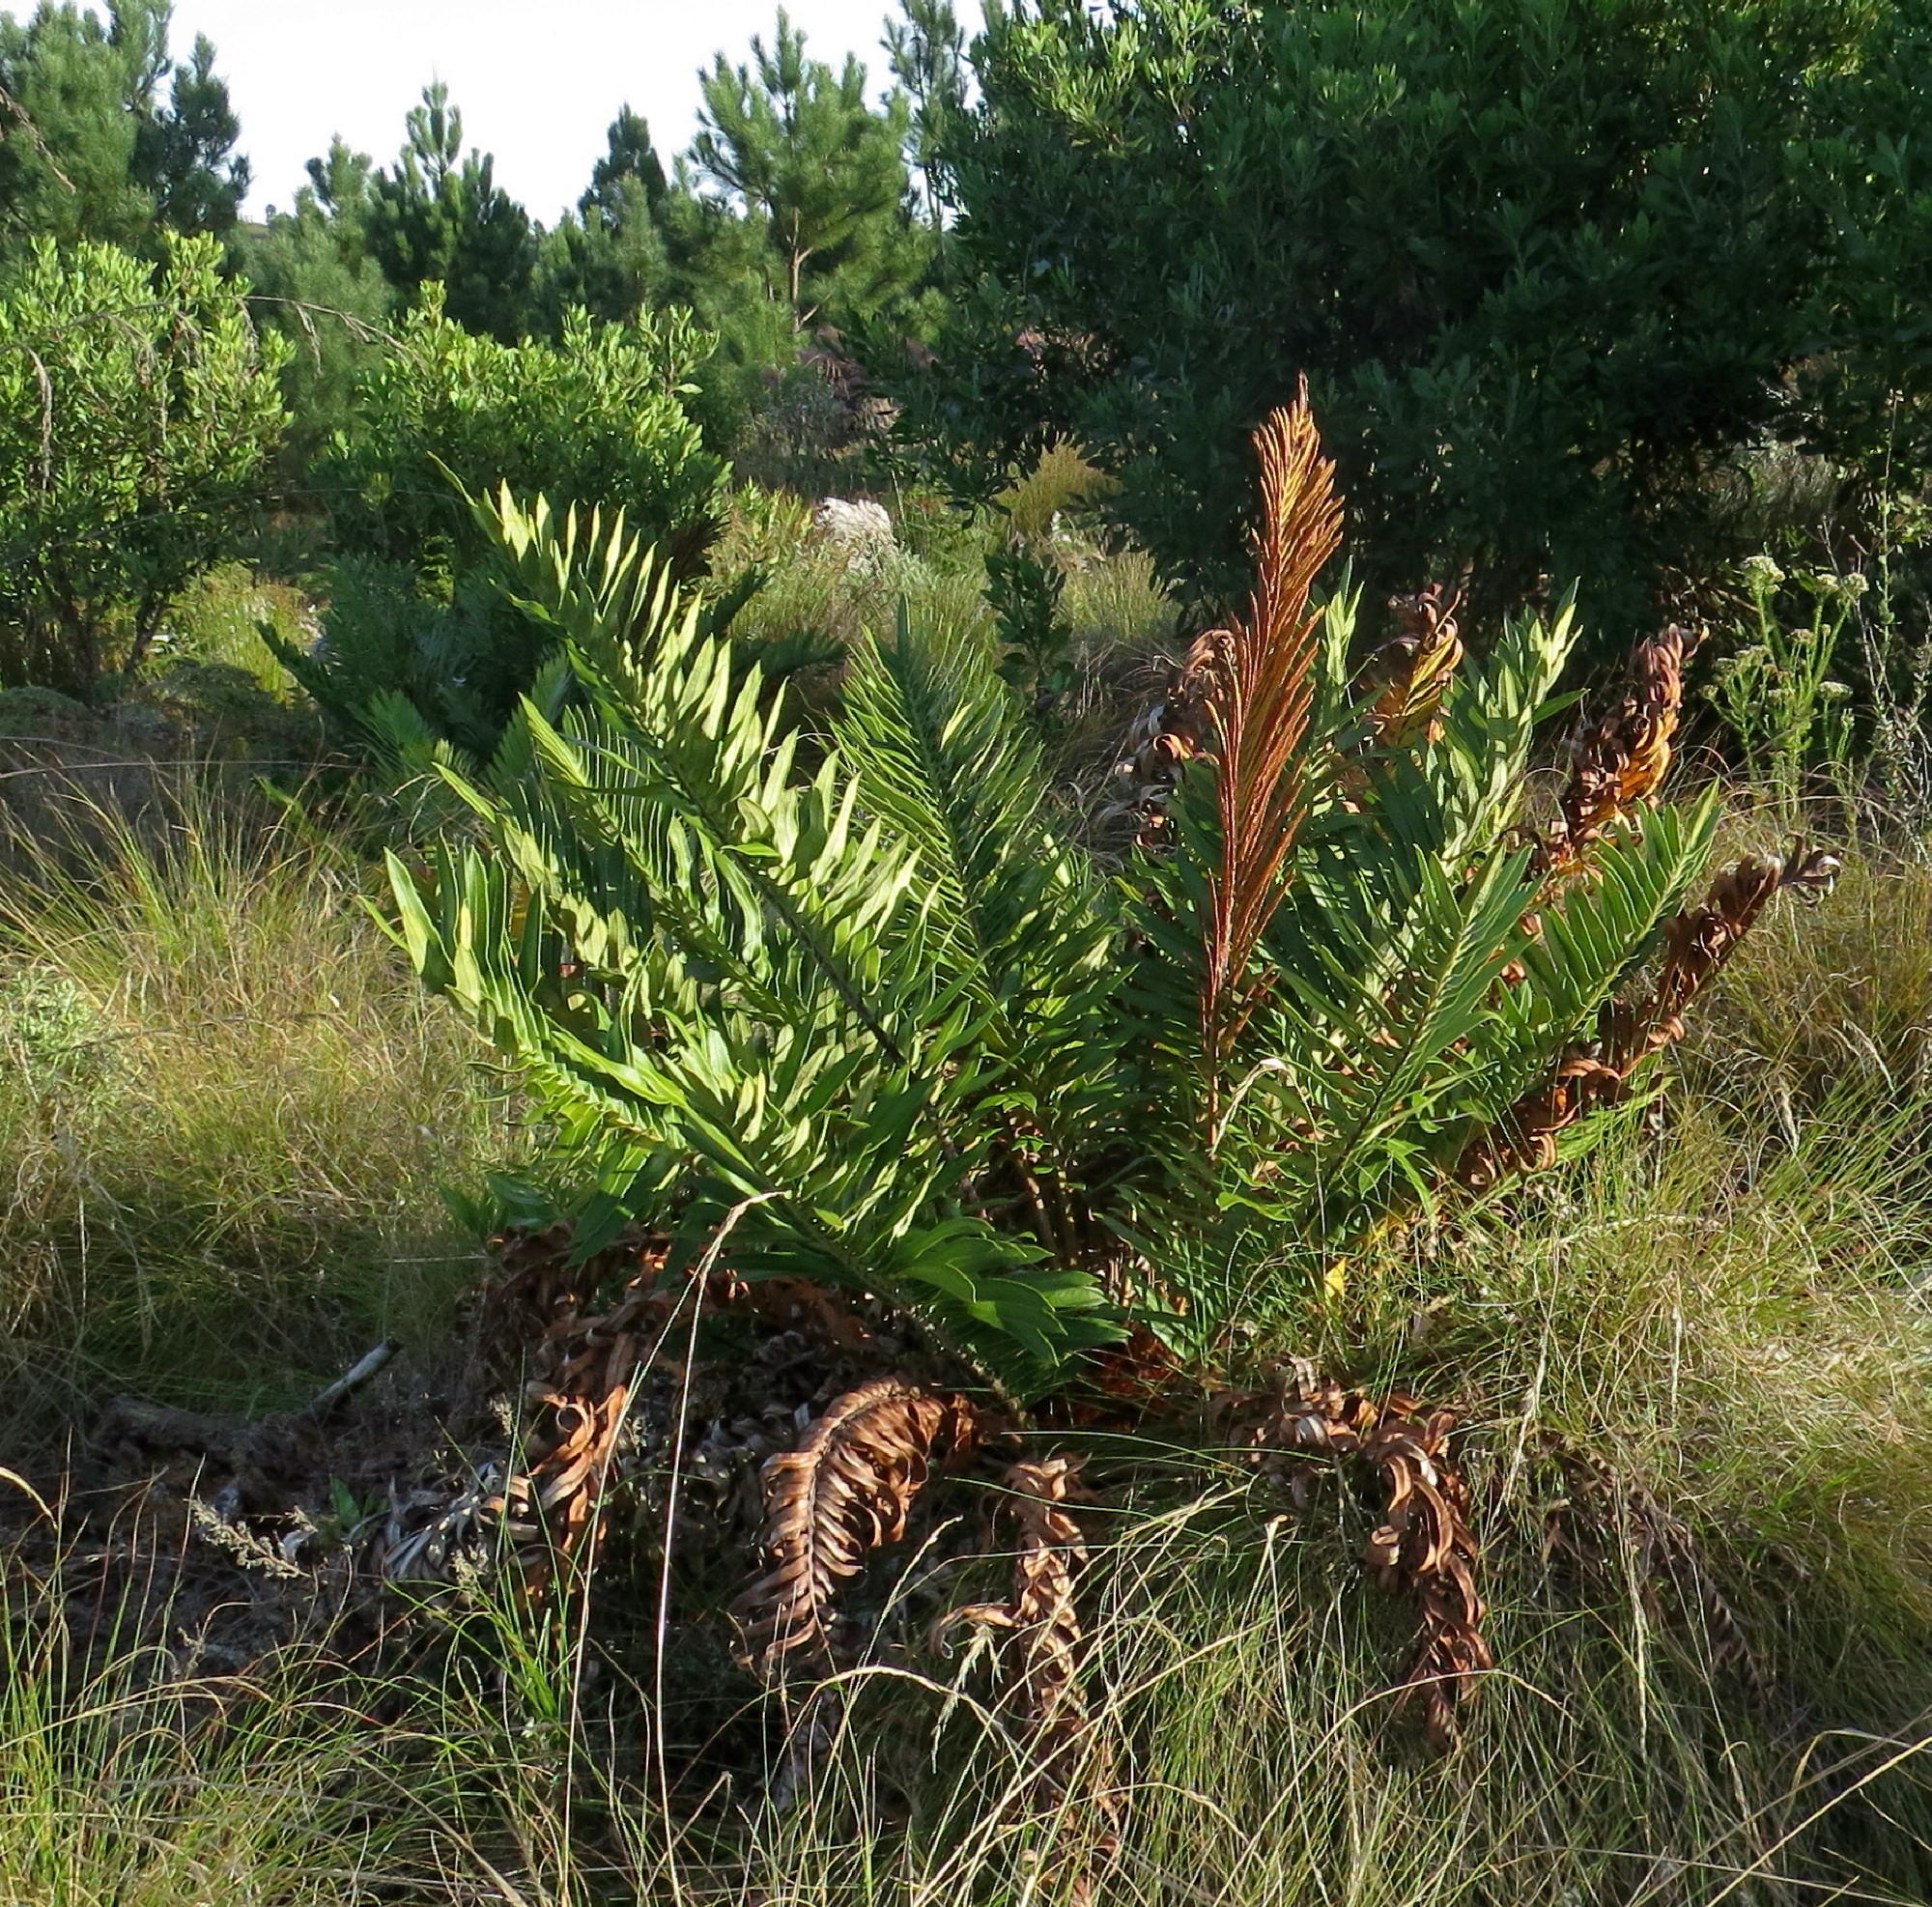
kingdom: Plantae
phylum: Tracheophyta
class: Polypodiopsida
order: Polypodiales
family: Blechnaceae
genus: Lomariocycas
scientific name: Lomariocycas tabularis
